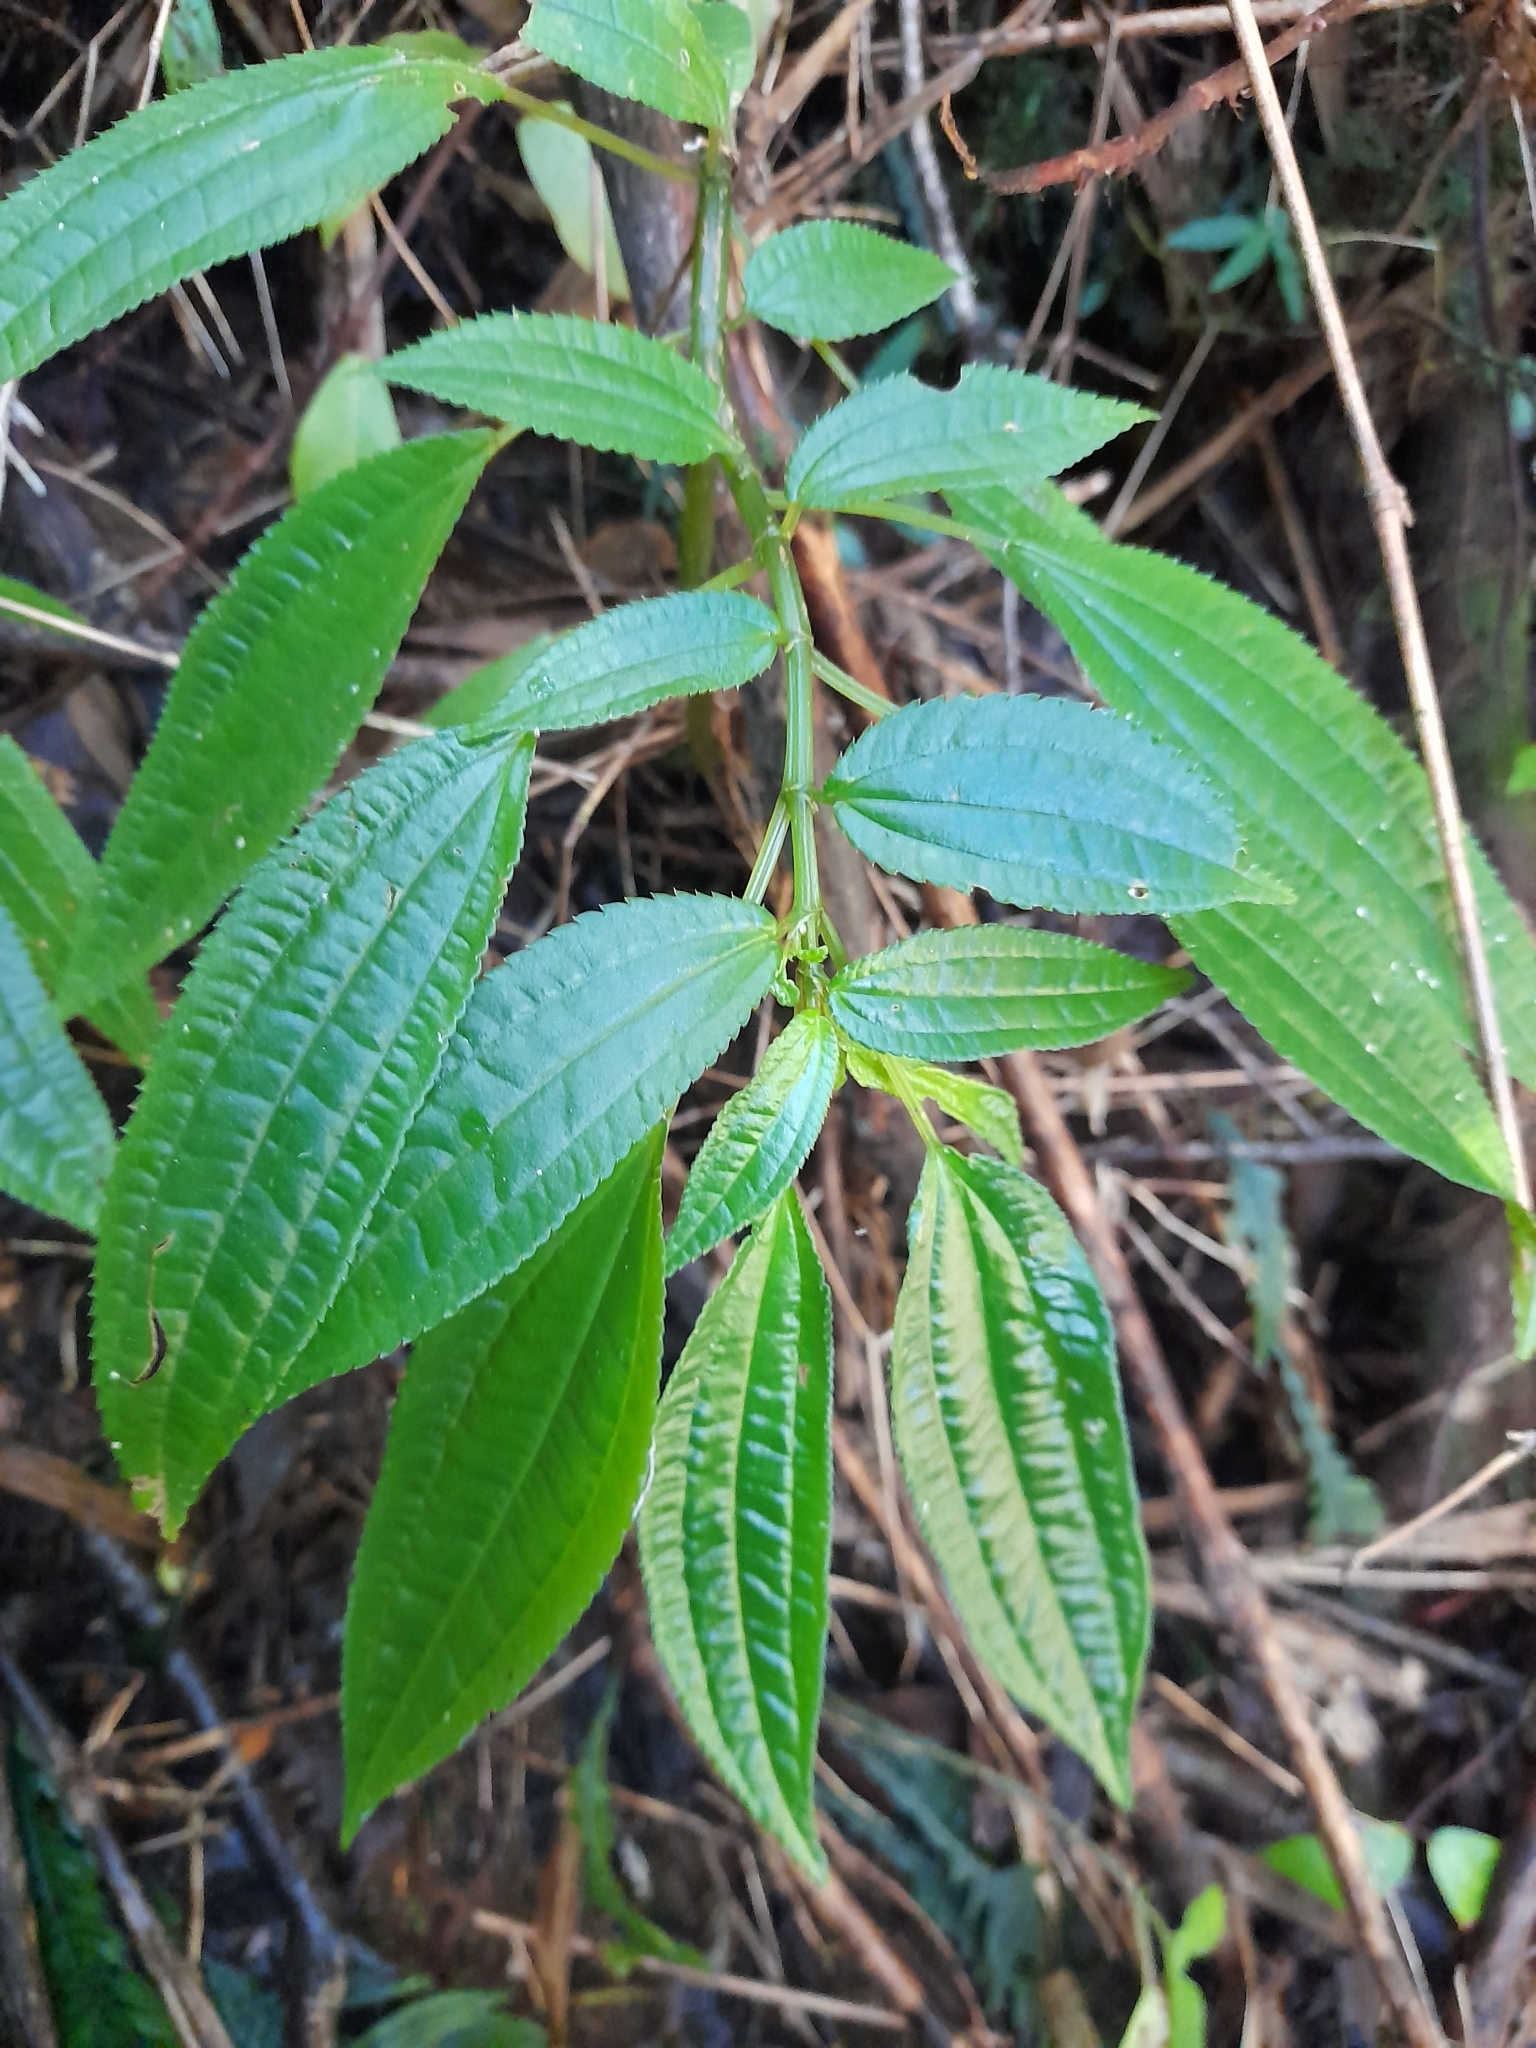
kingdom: Plantae
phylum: Tracheophyta
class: Magnoliopsida
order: Rosales
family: Urticaceae
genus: Pilea
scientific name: Pilea elegans
